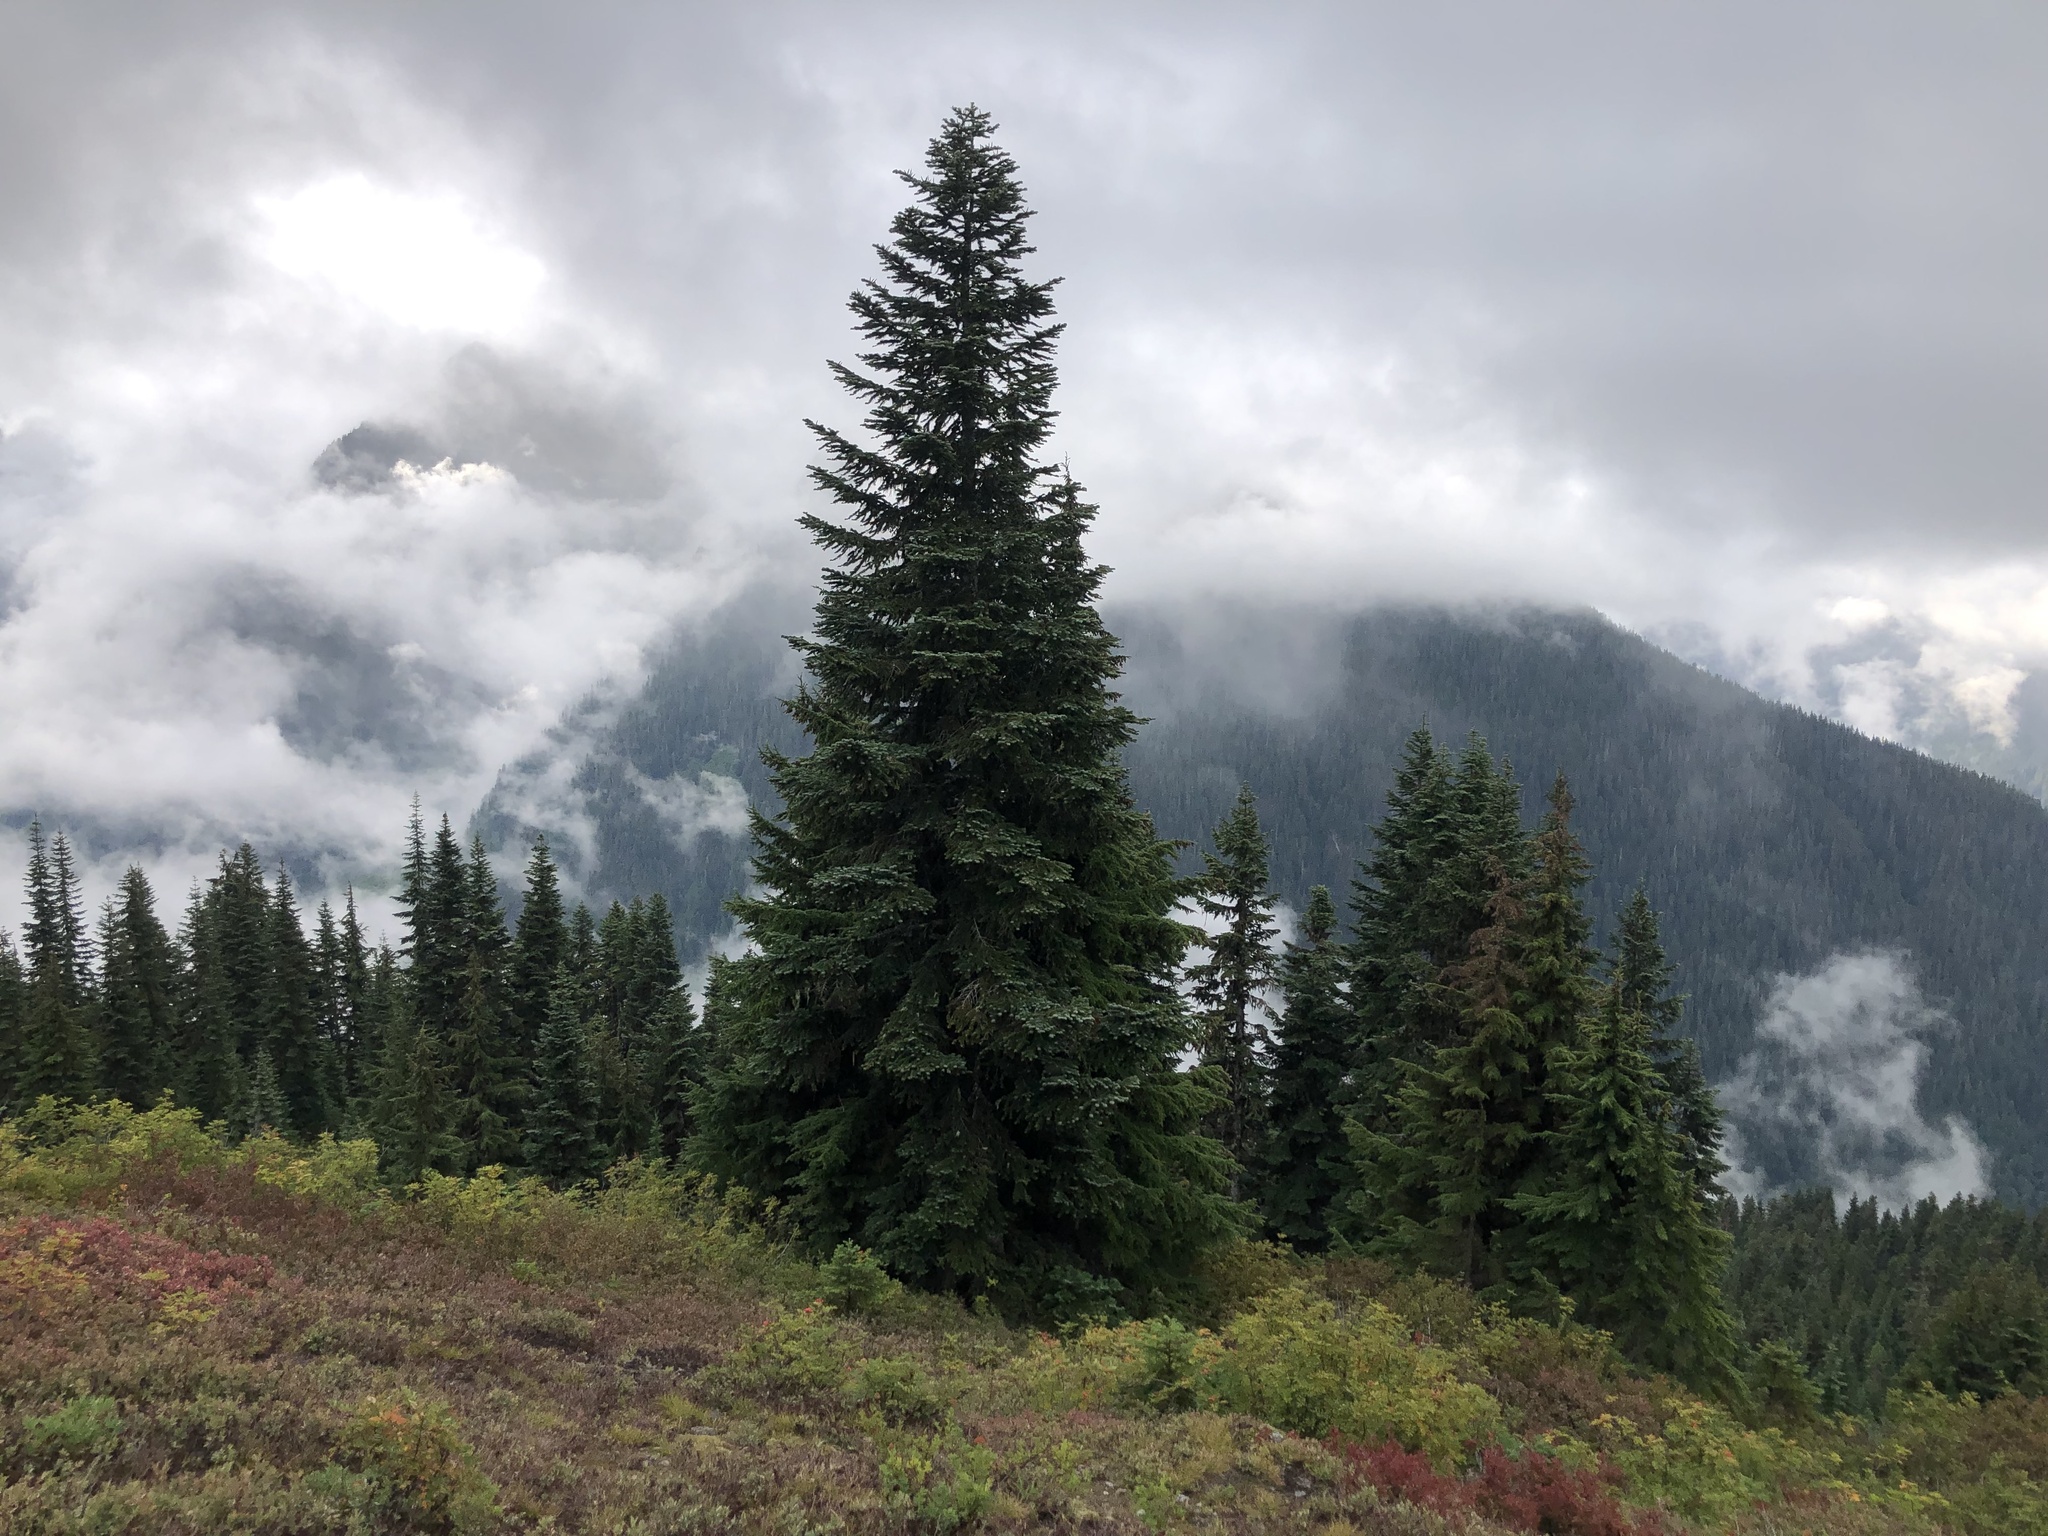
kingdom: Plantae
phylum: Tracheophyta
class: Pinopsida
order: Pinales
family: Pinaceae
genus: Abies
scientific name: Abies amabilis
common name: Pacific silver fir
